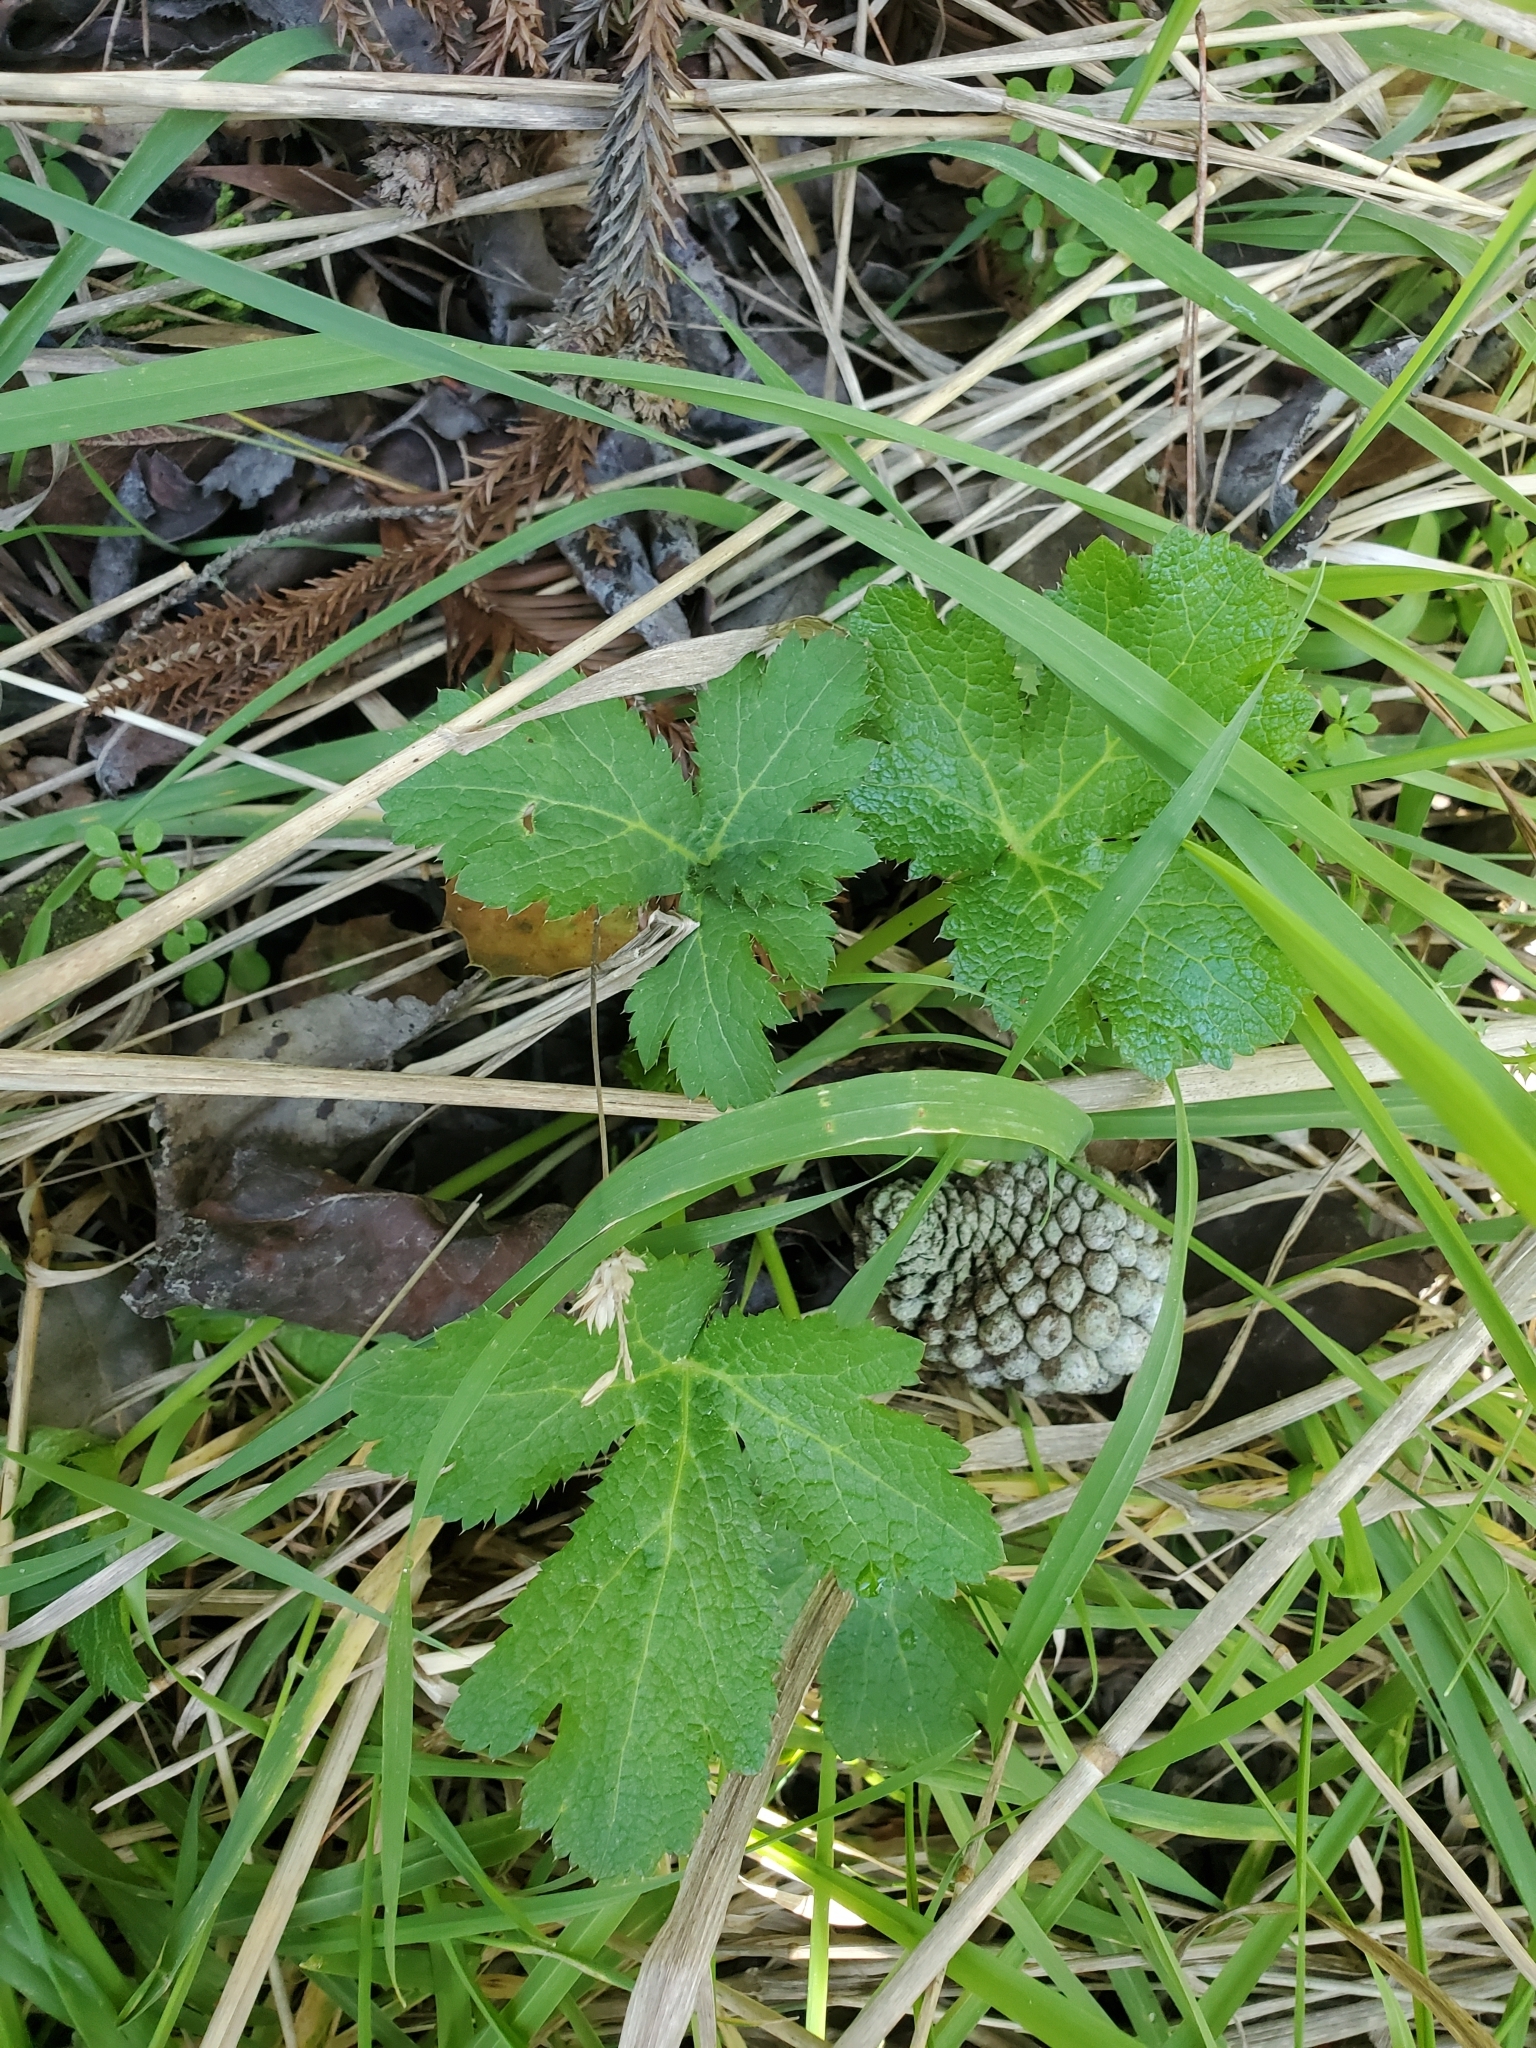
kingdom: Plantae
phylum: Tracheophyta
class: Magnoliopsida
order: Apiales
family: Apiaceae
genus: Sanicula
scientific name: Sanicula crassicaulis
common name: Western snakeroot
